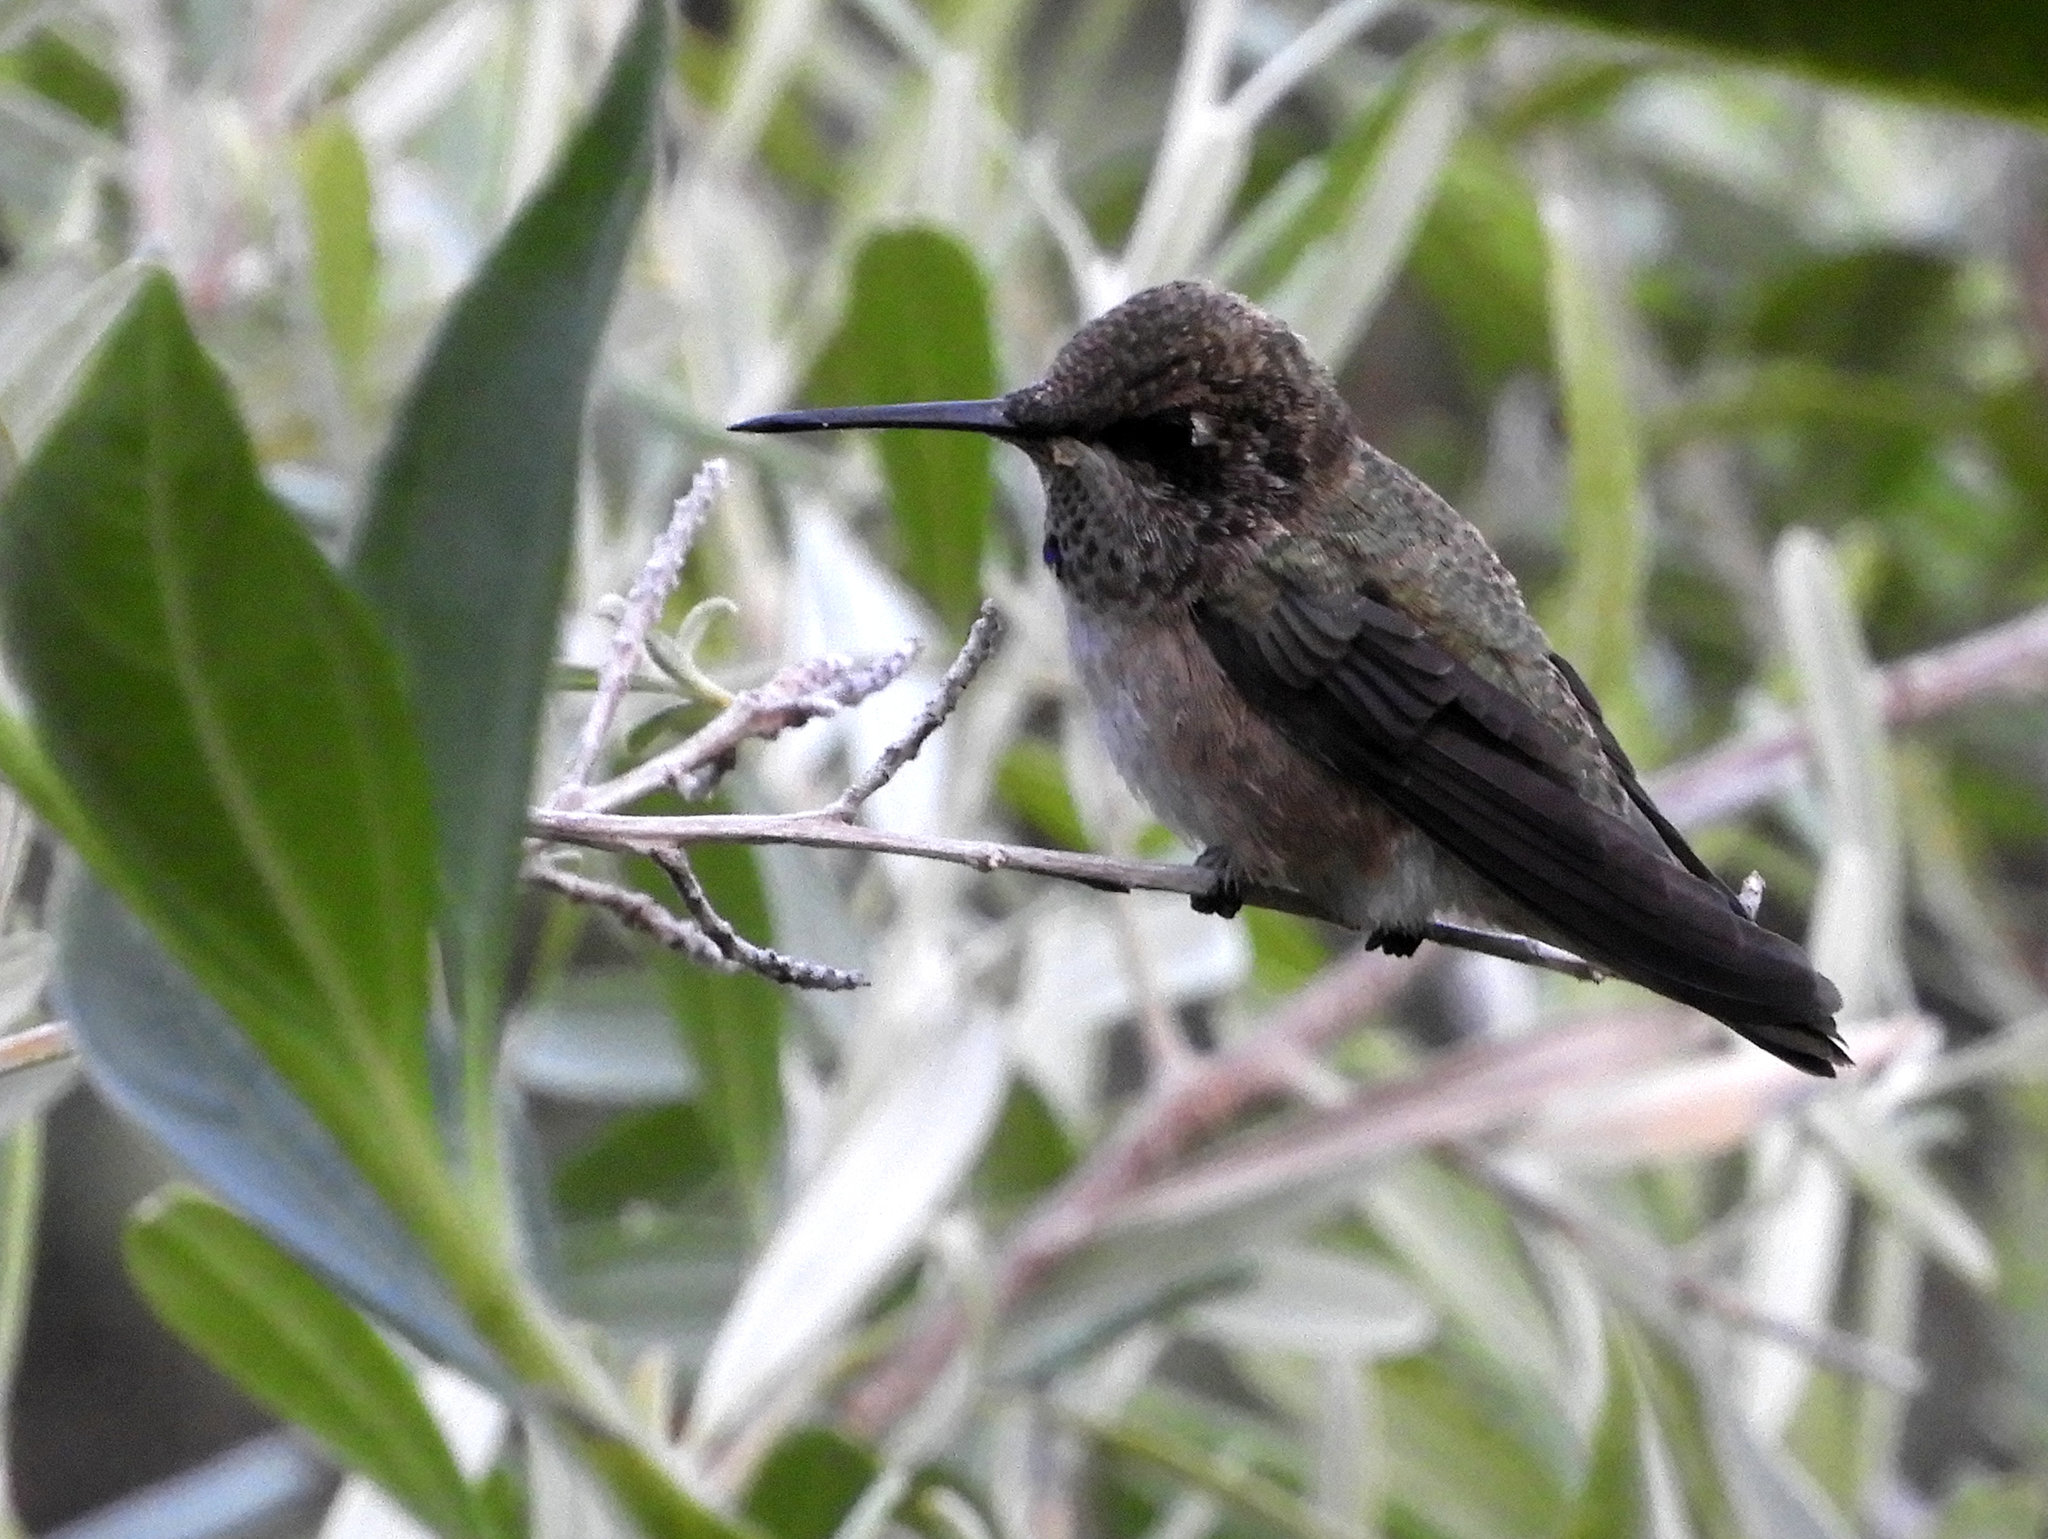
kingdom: Animalia
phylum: Chordata
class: Aves
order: Apodiformes
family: Trochilidae
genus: Calypte
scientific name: Calypte anna
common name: Anna's hummingbird
